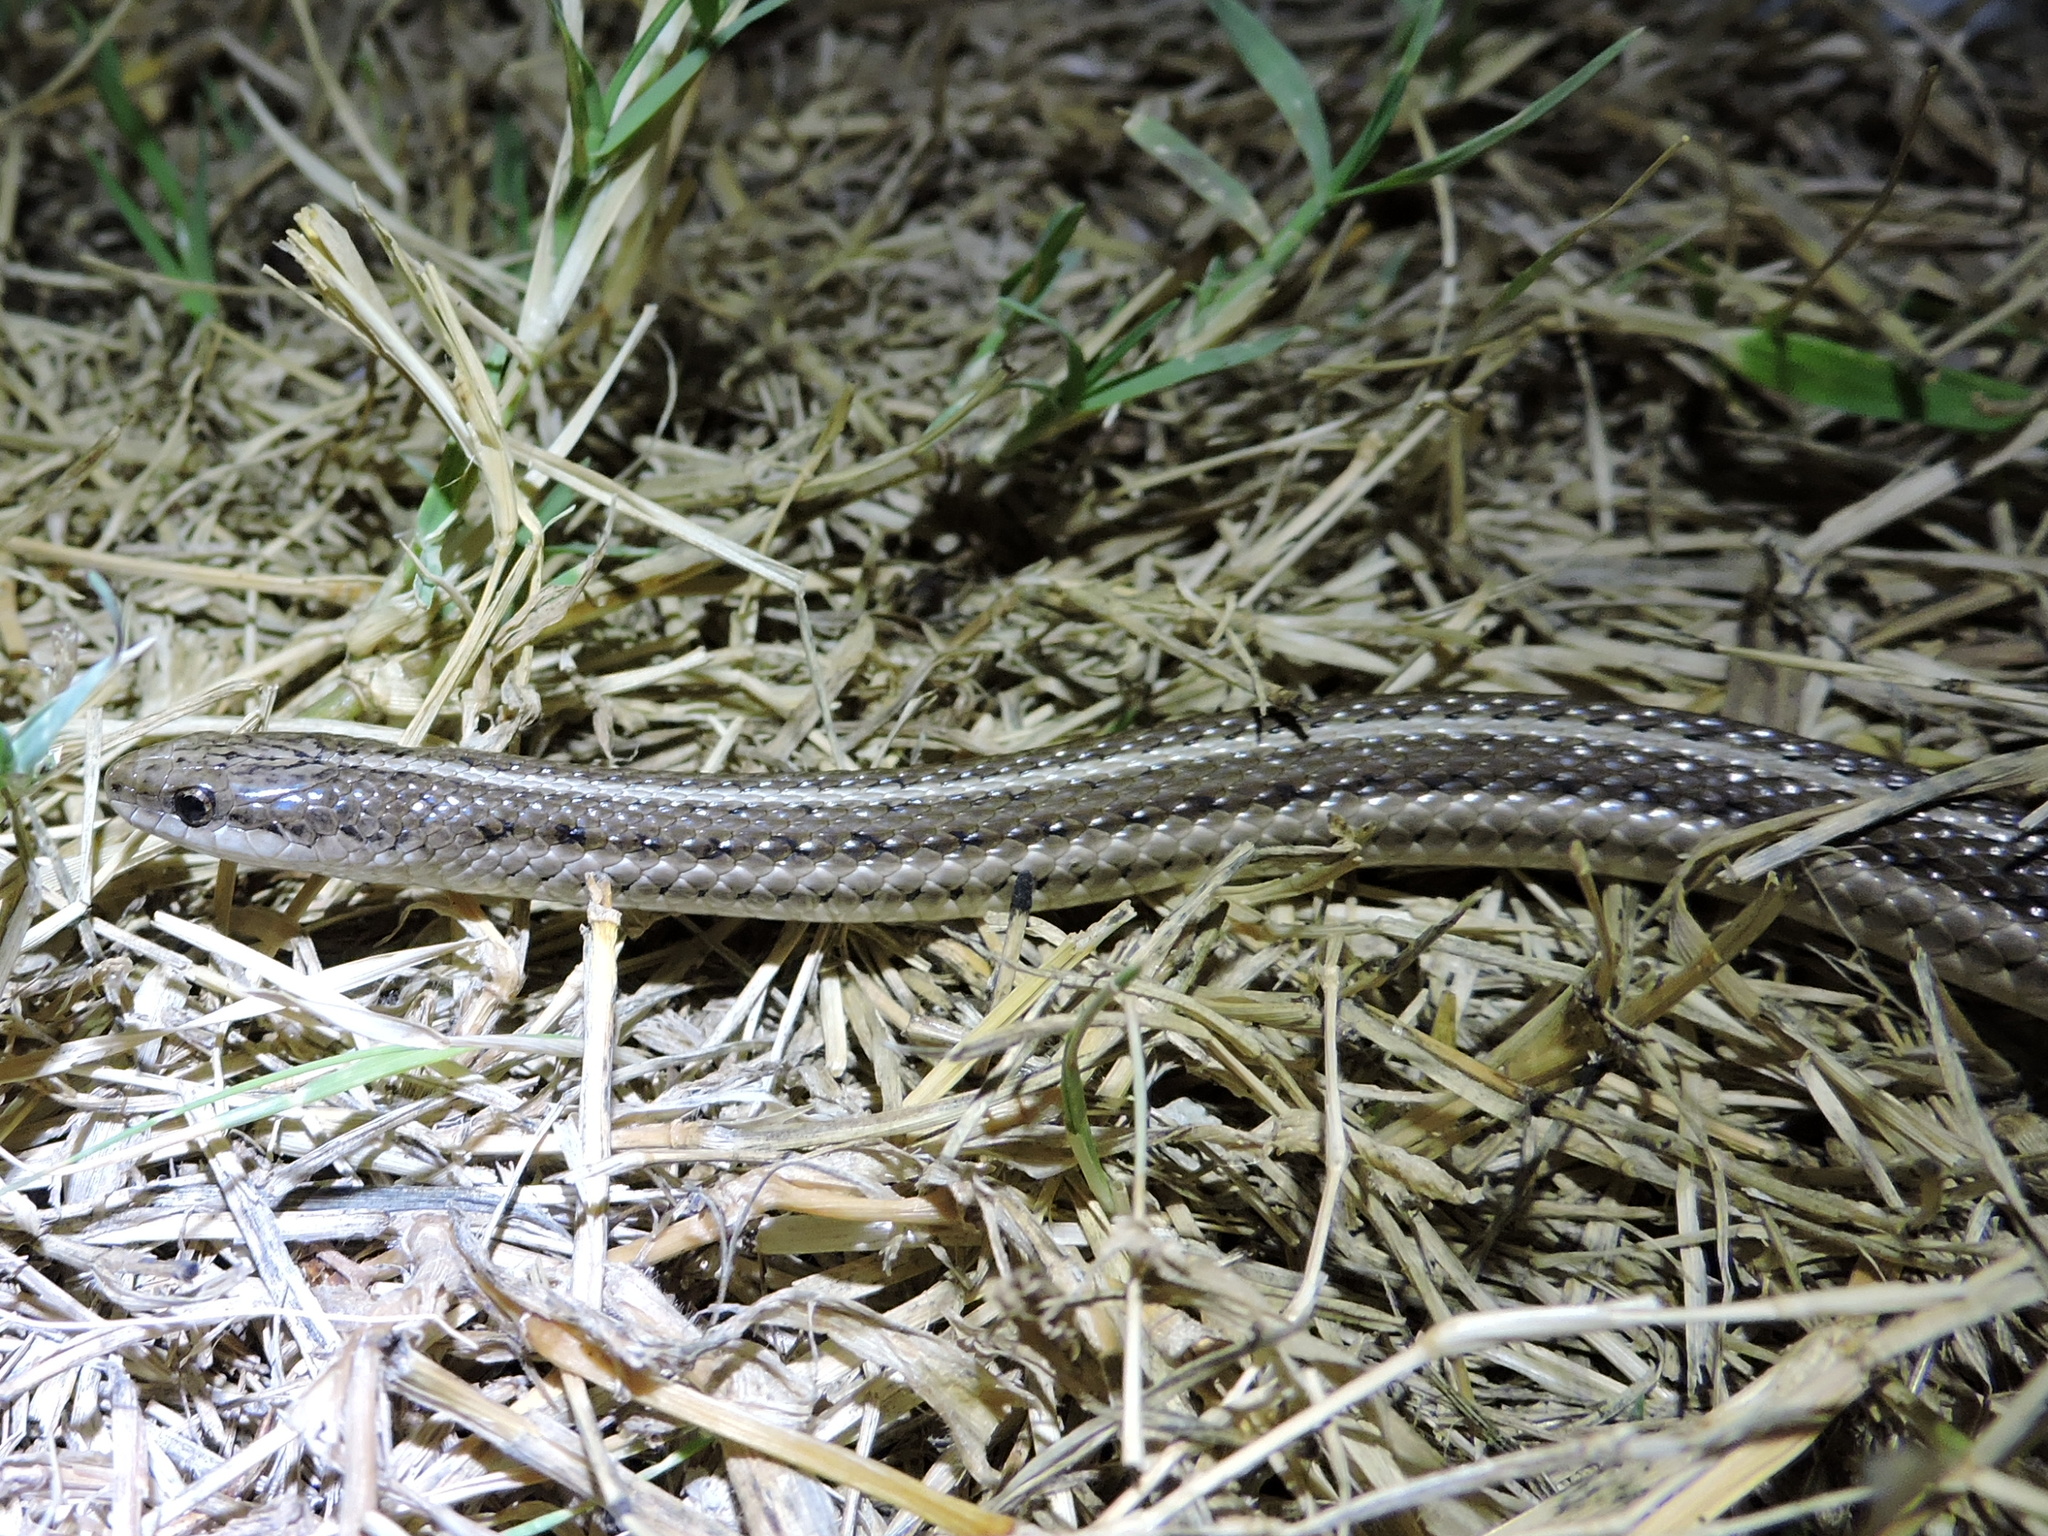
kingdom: Animalia
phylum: Chordata
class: Squamata
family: Colubridae
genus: Tropidoclonion
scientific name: Tropidoclonion lineatum
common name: Lined snake
